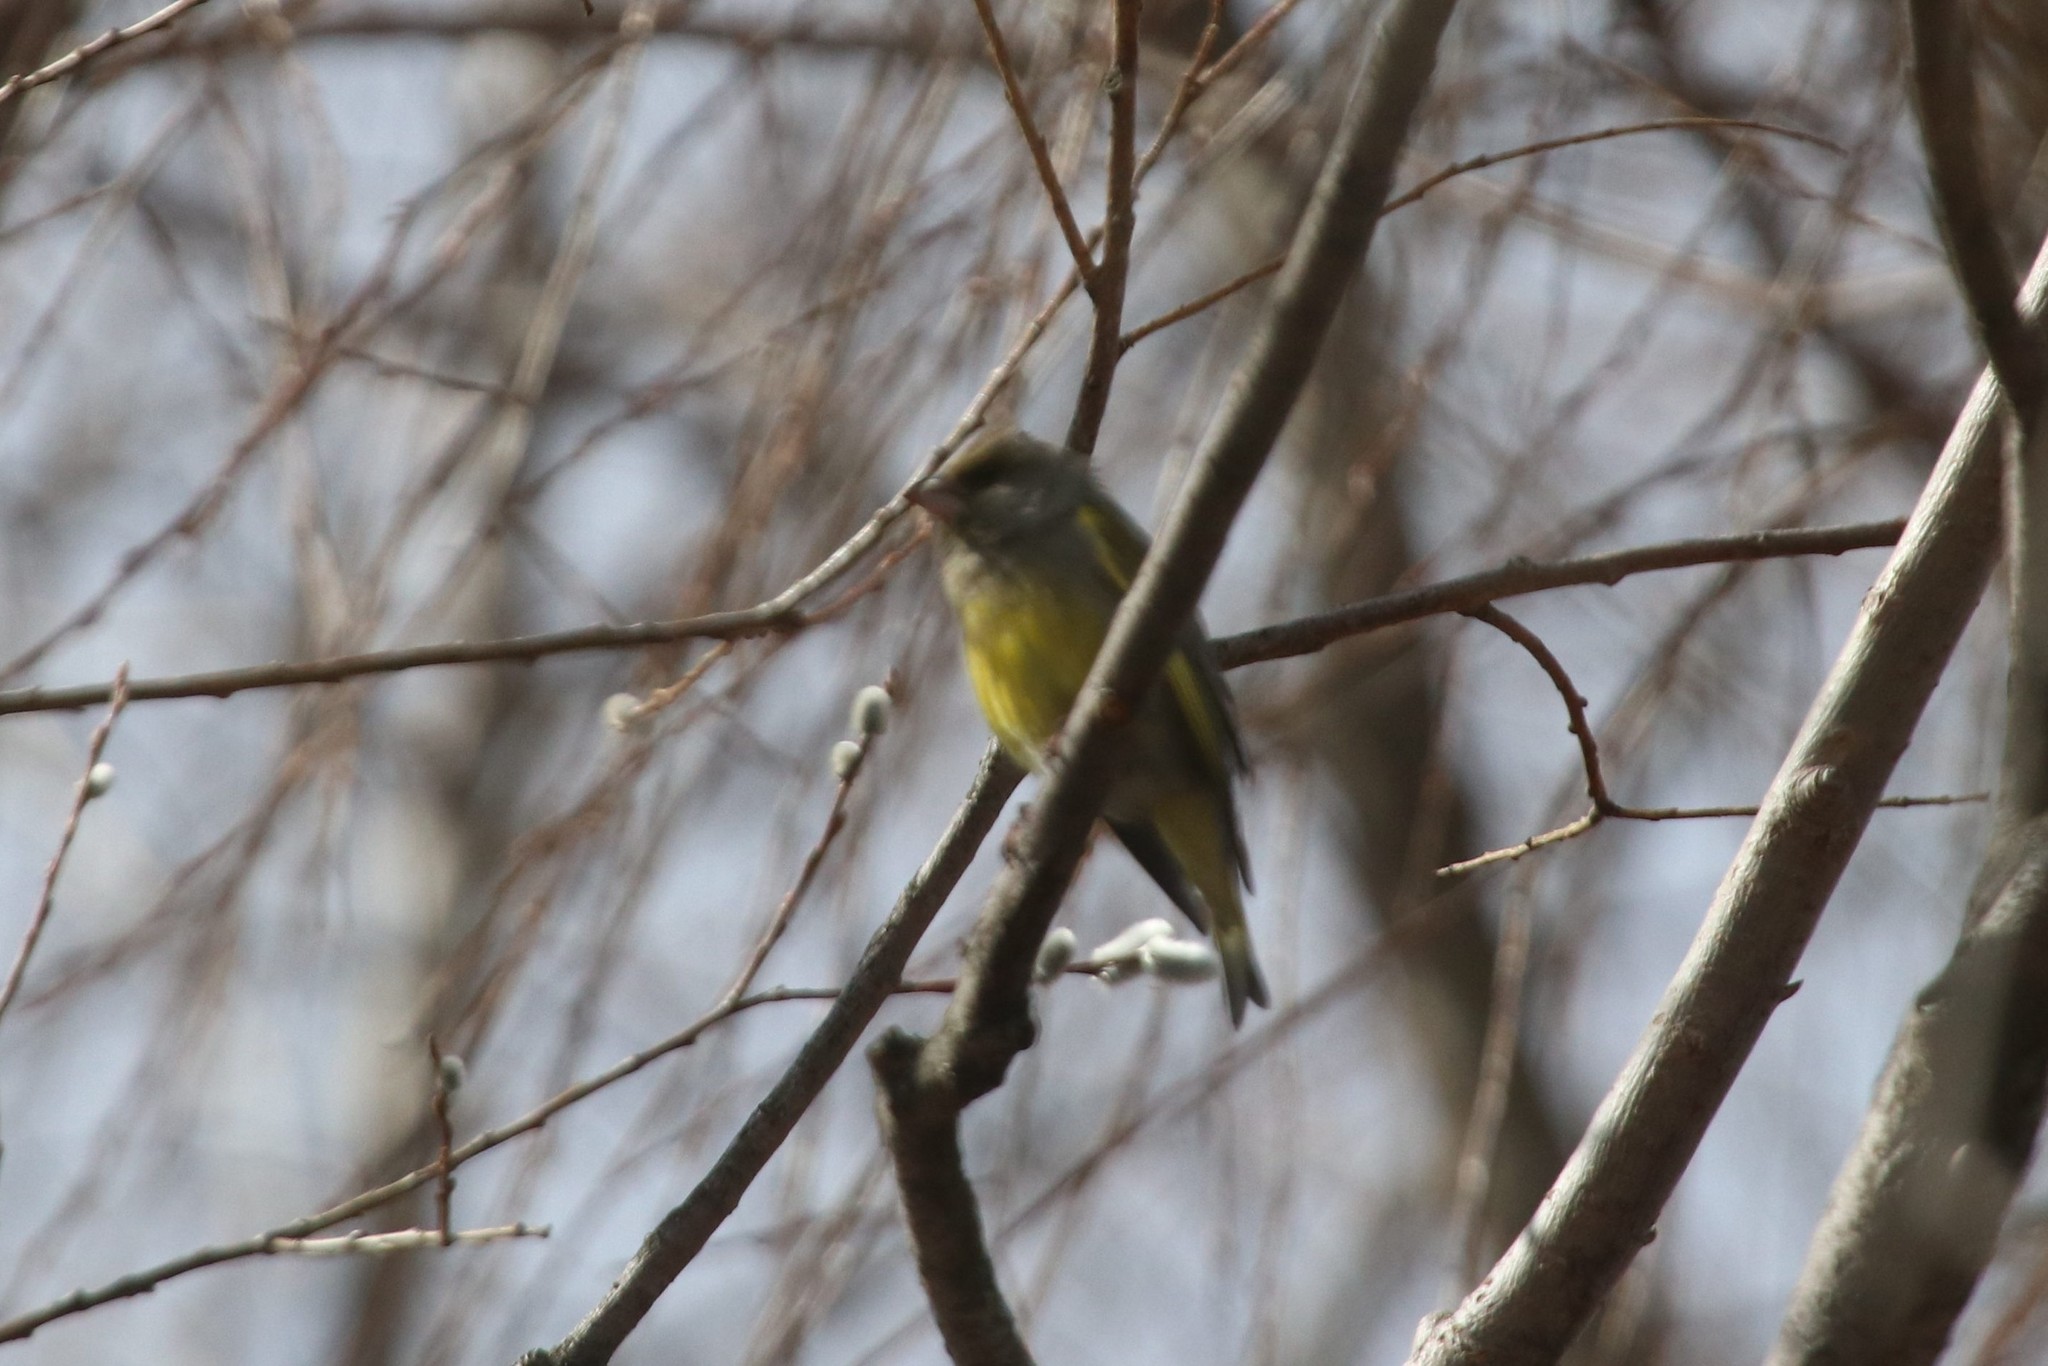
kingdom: Plantae
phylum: Tracheophyta
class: Liliopsida
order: Poales
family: Poaceae
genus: Chloris
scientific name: Chloris chloris
